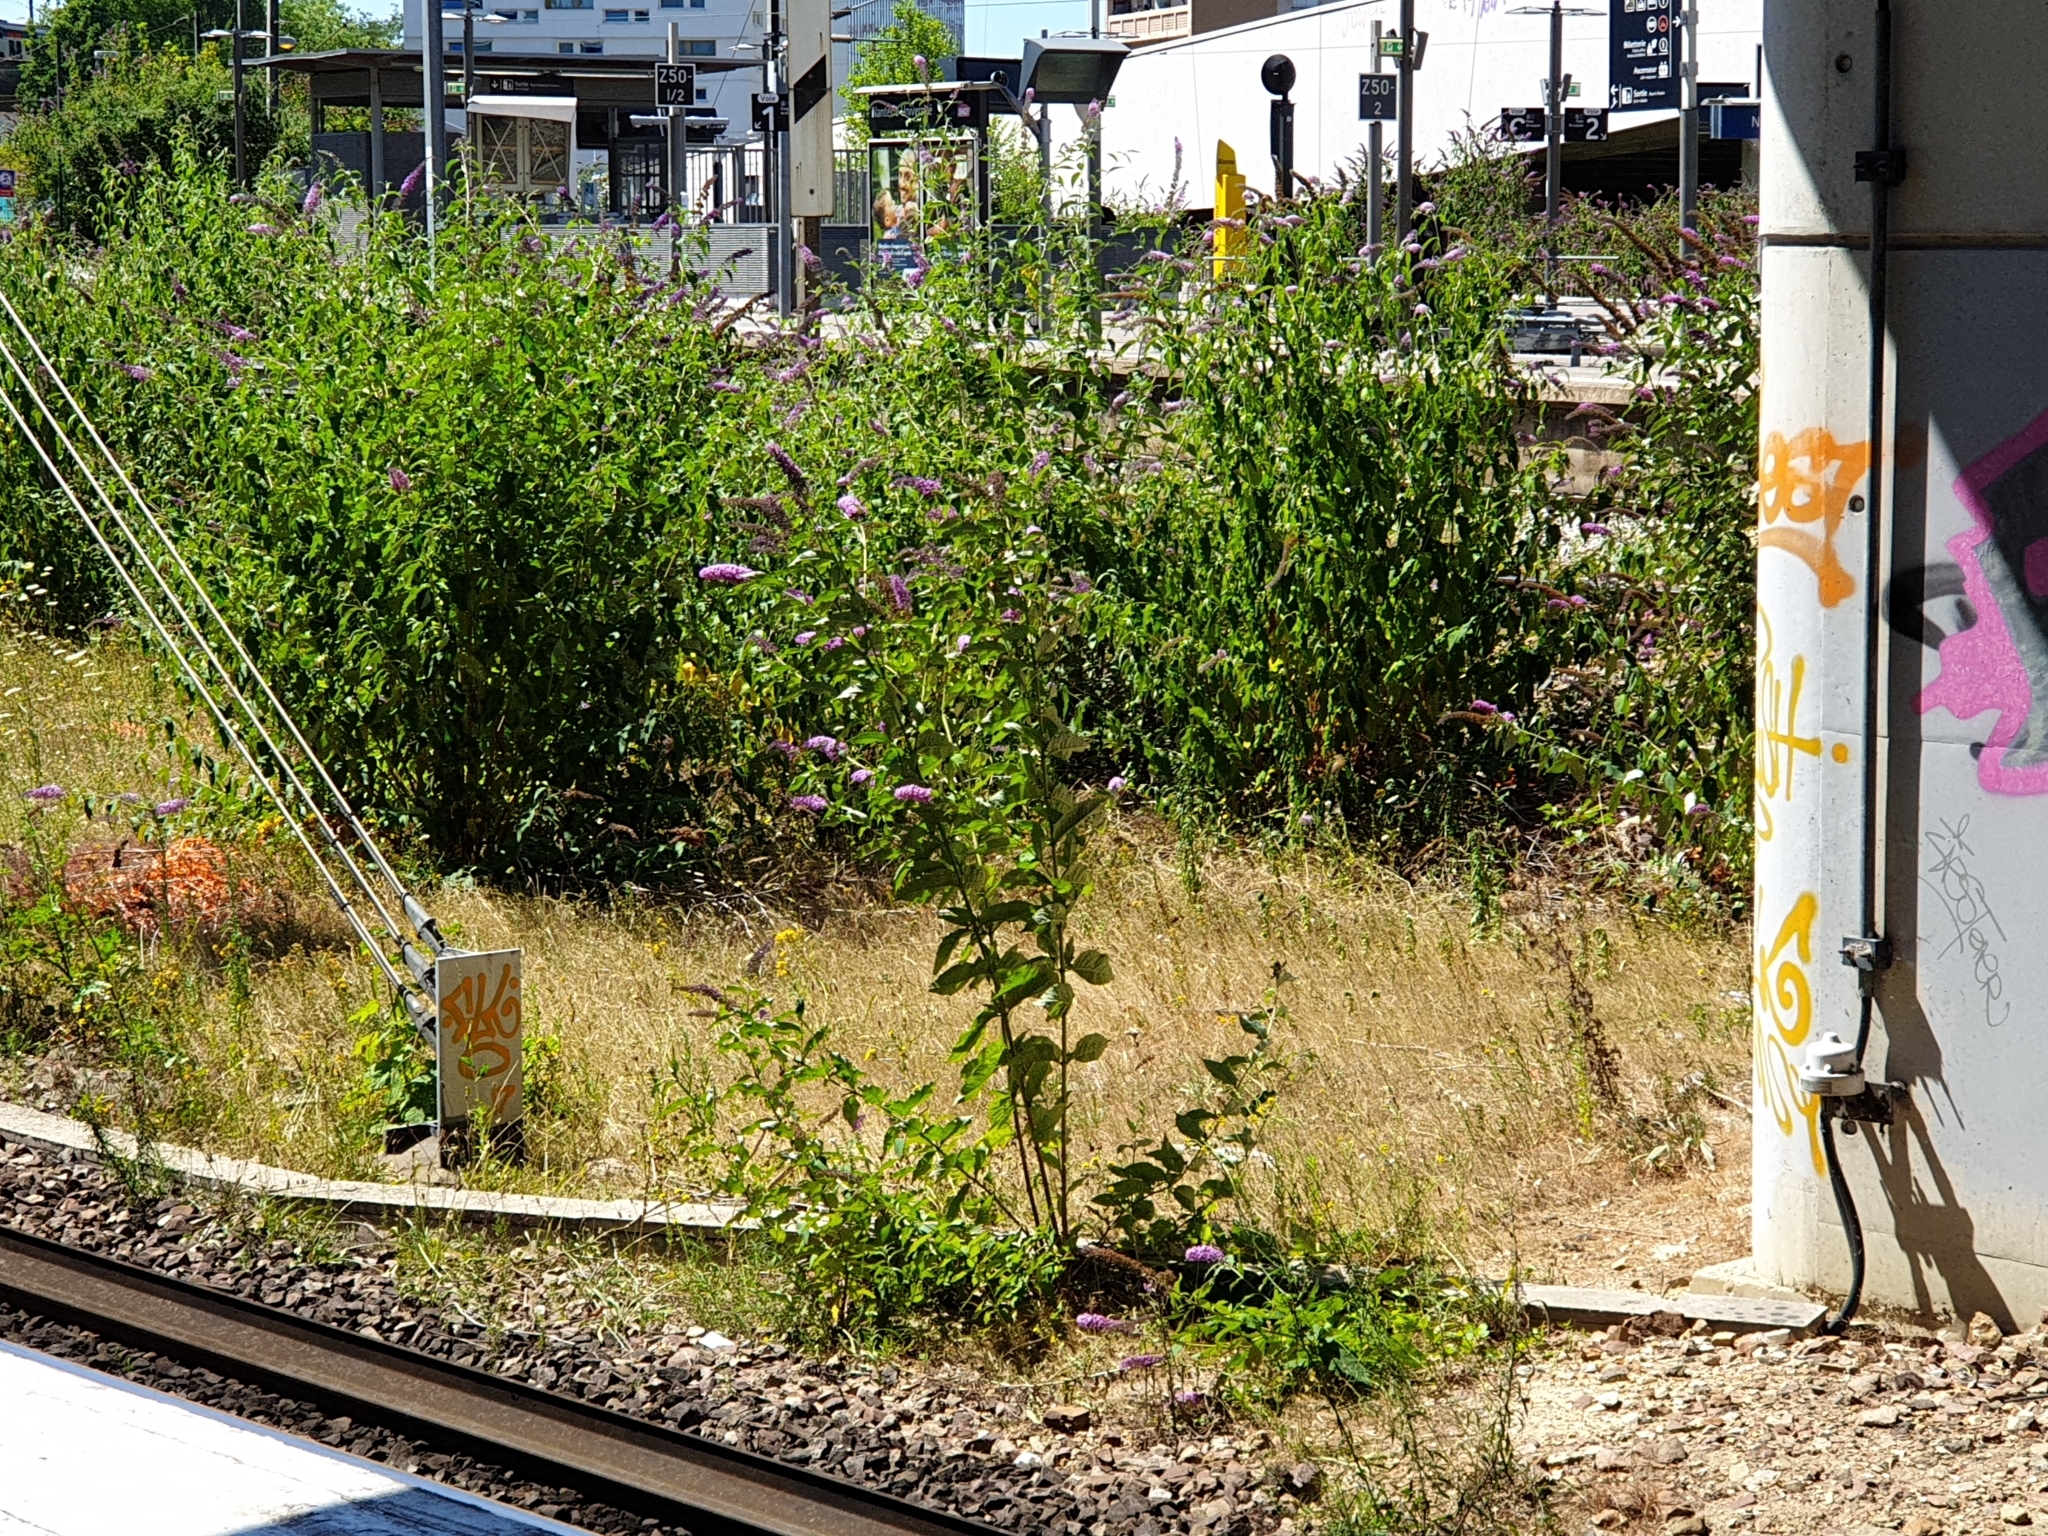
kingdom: Plantae
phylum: Tracheophyta
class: Magnoliopsida
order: Lamiales
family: Scrophulariaceae
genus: Buddleja
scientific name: Buddleja davidii
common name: Butterfly-bush
